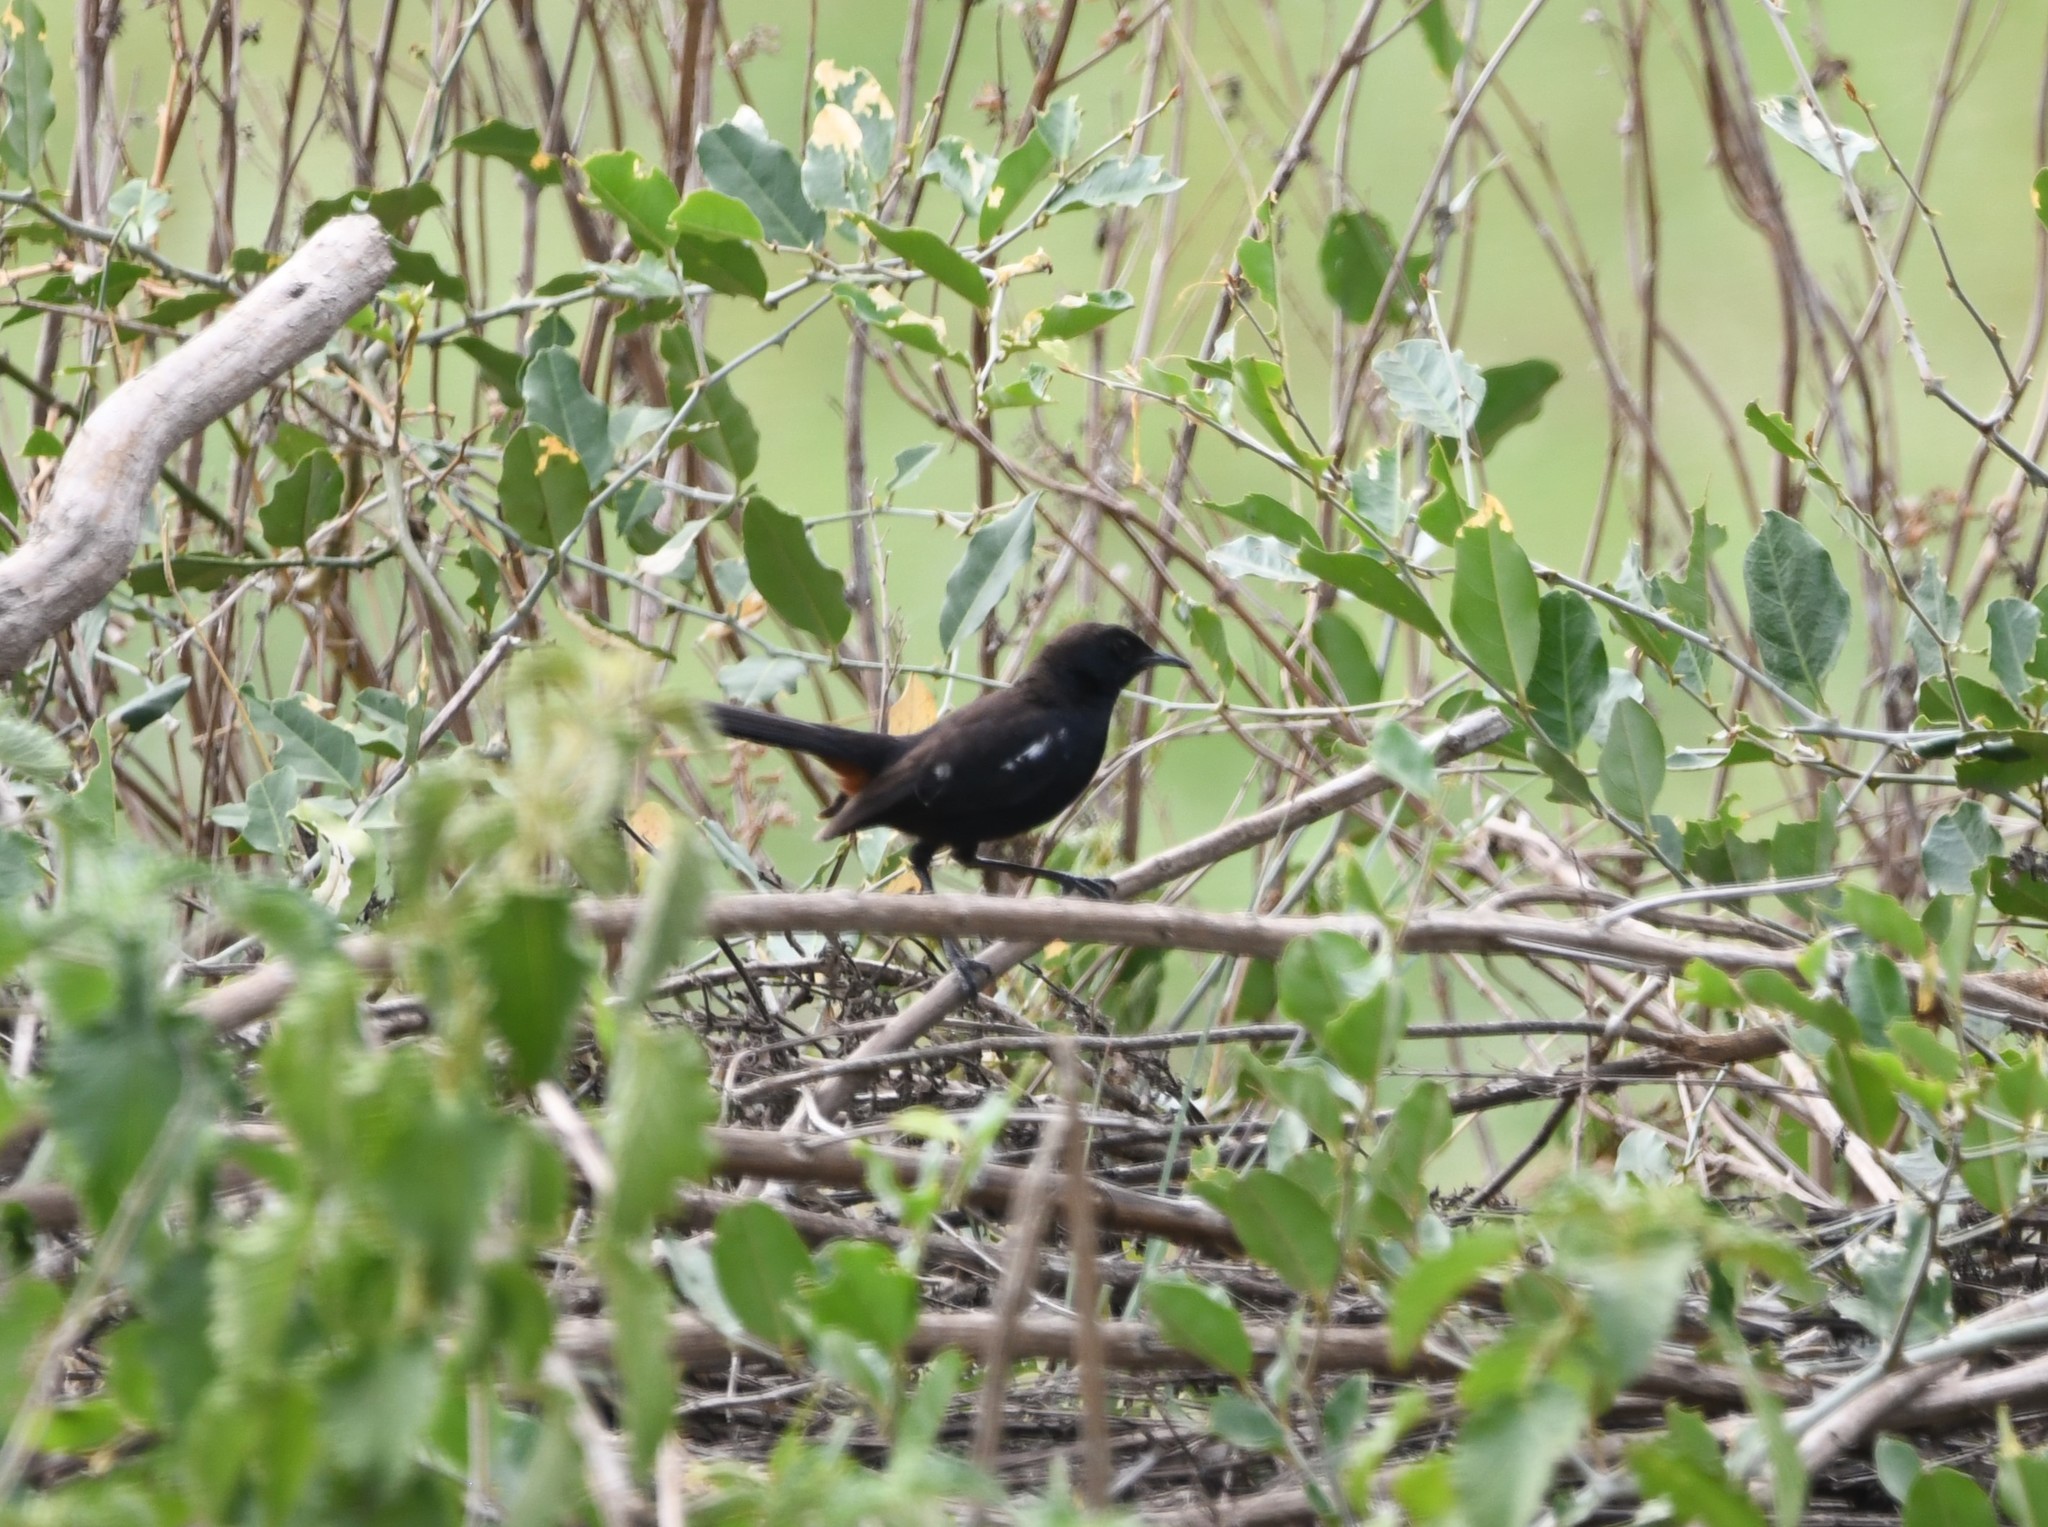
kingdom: Animalia
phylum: Chordata
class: Aves
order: Passeriformes
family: Muscicapidae
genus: Saxicoloides
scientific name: Saxicoloides fulicatus
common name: Indian robin
